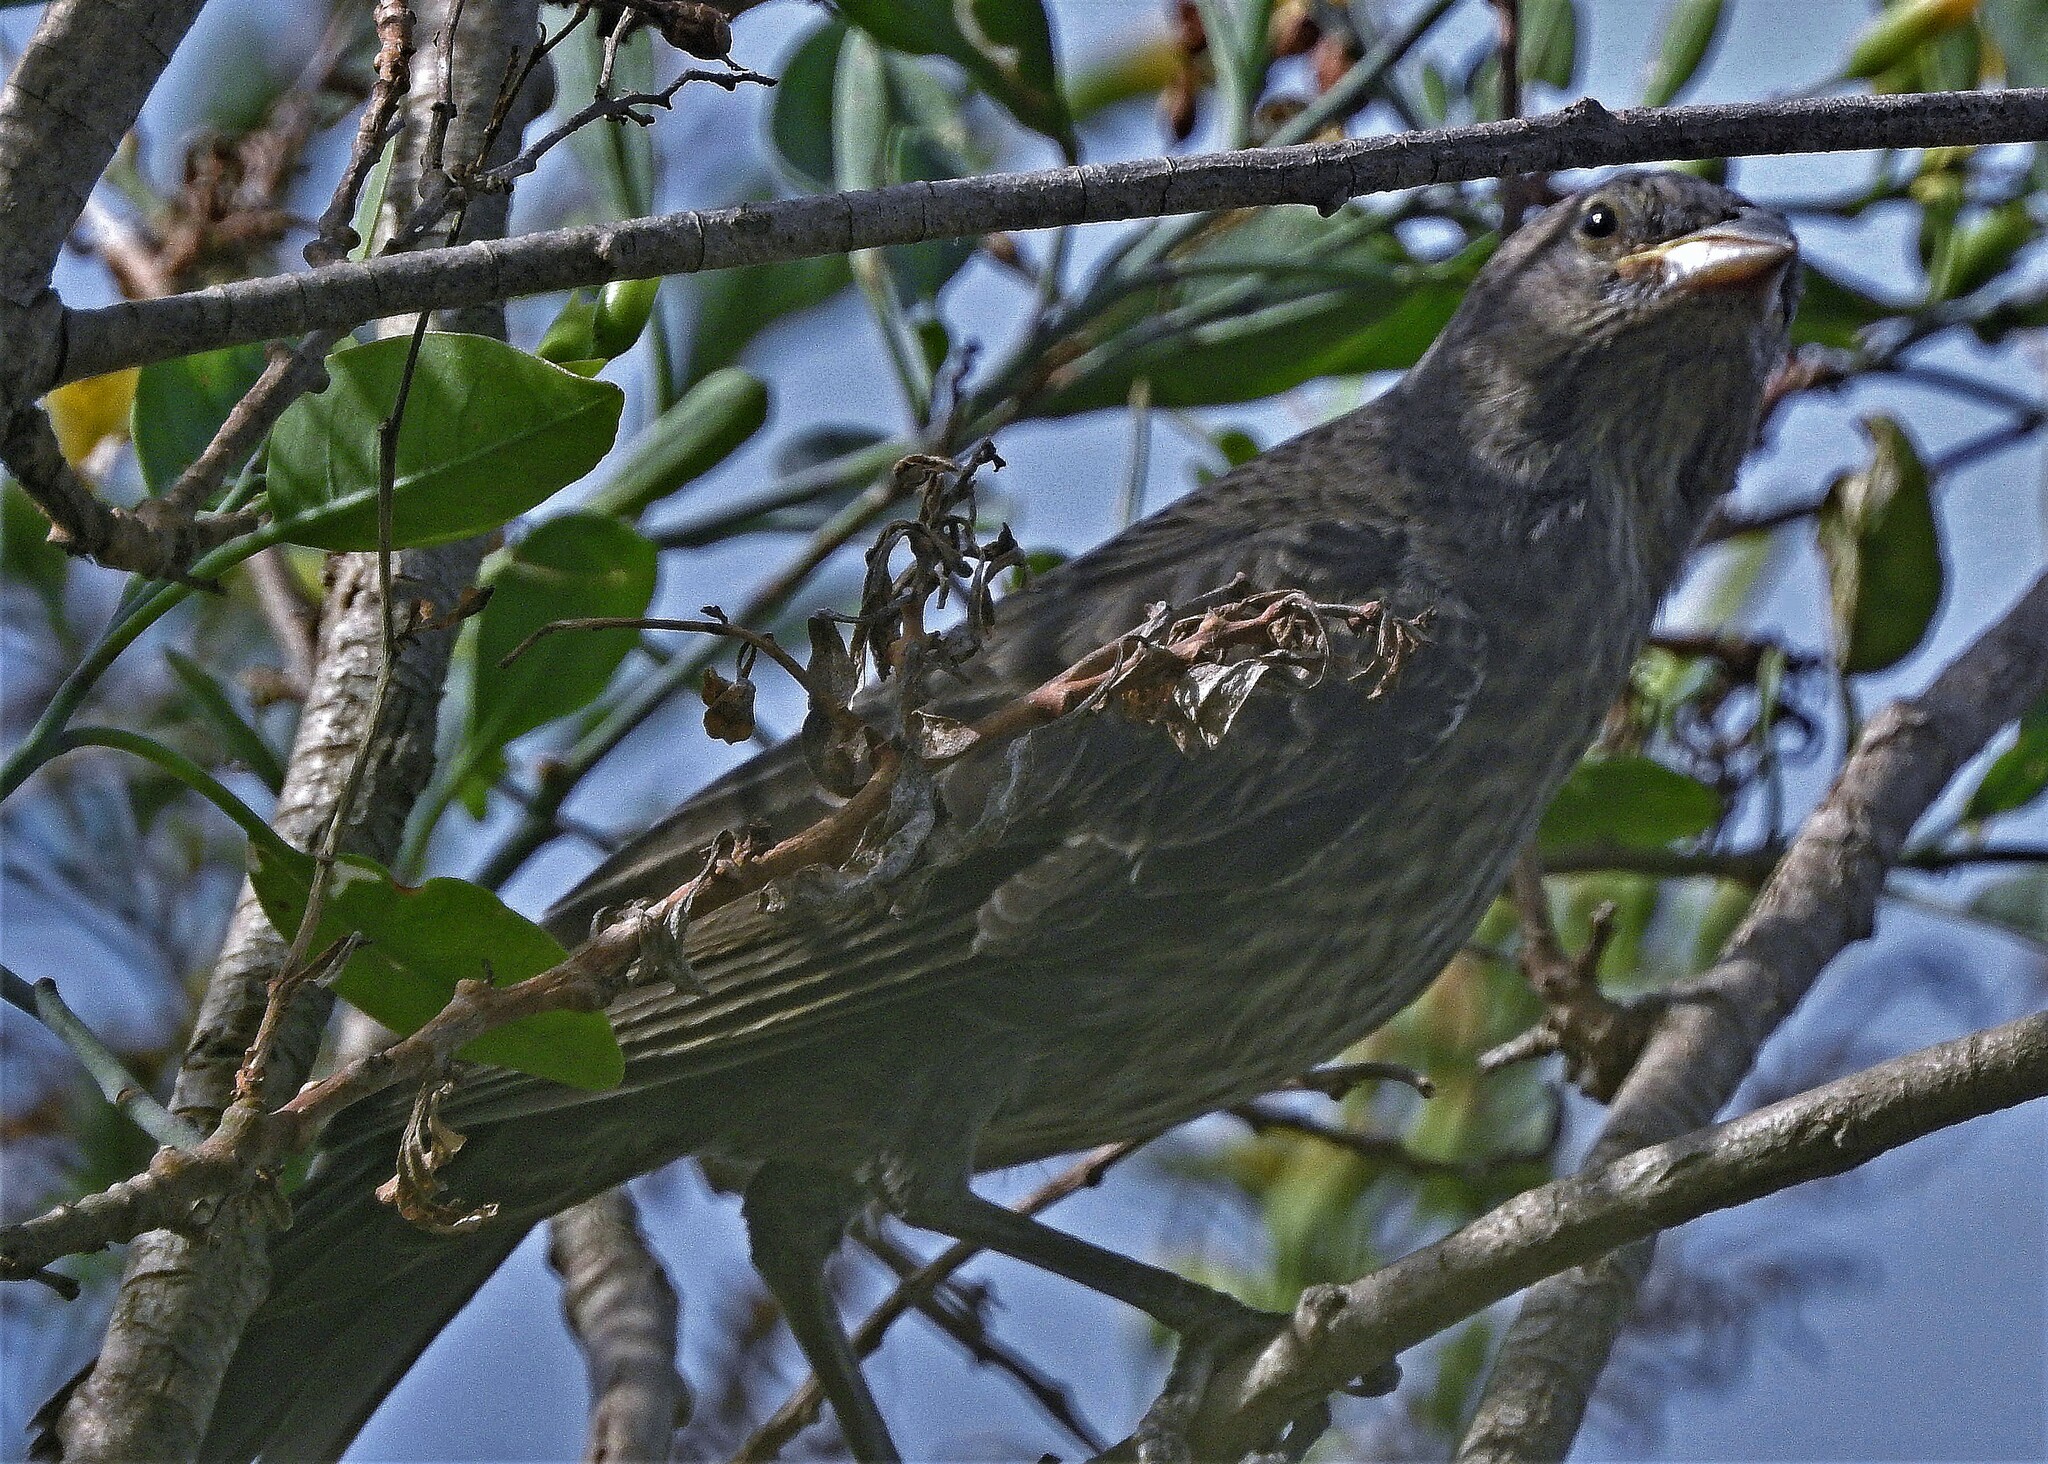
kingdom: Animalia
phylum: Chordata
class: Aves
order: Passeriformes
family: Icteridae
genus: Molothrus
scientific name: Molothrus bonariensis
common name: Shiny cowbird
